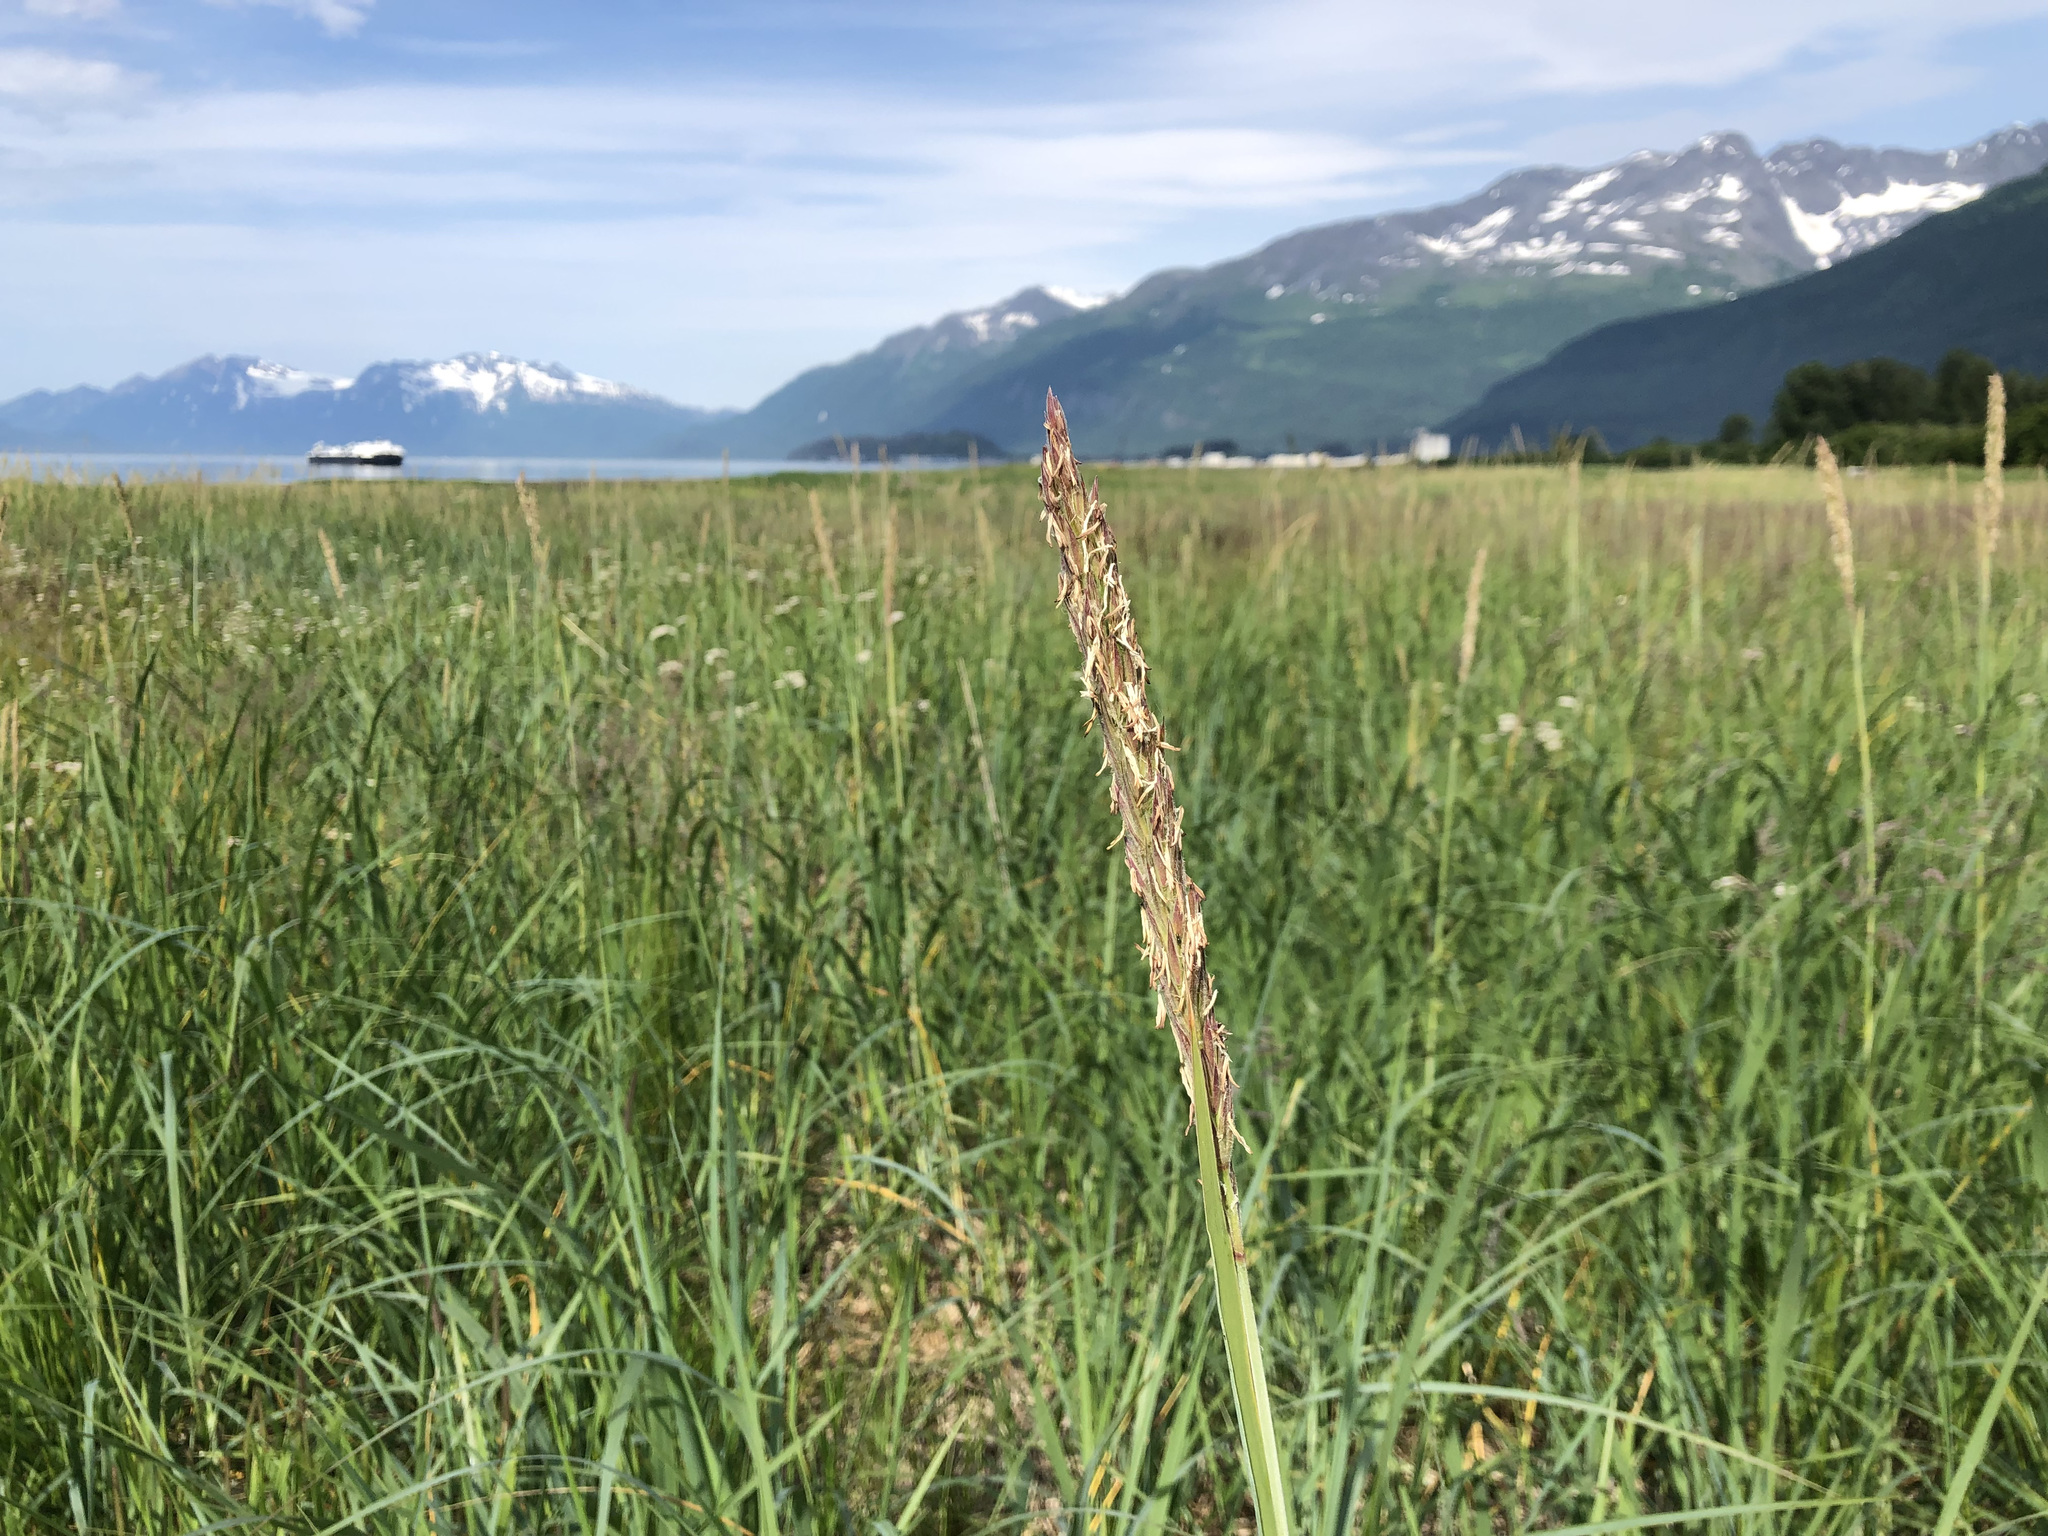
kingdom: Plantae
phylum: Tracheophyta
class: Liliopsida
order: Poales
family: Poaceae
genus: Leymus
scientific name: Leymus mollis
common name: American dune grass
